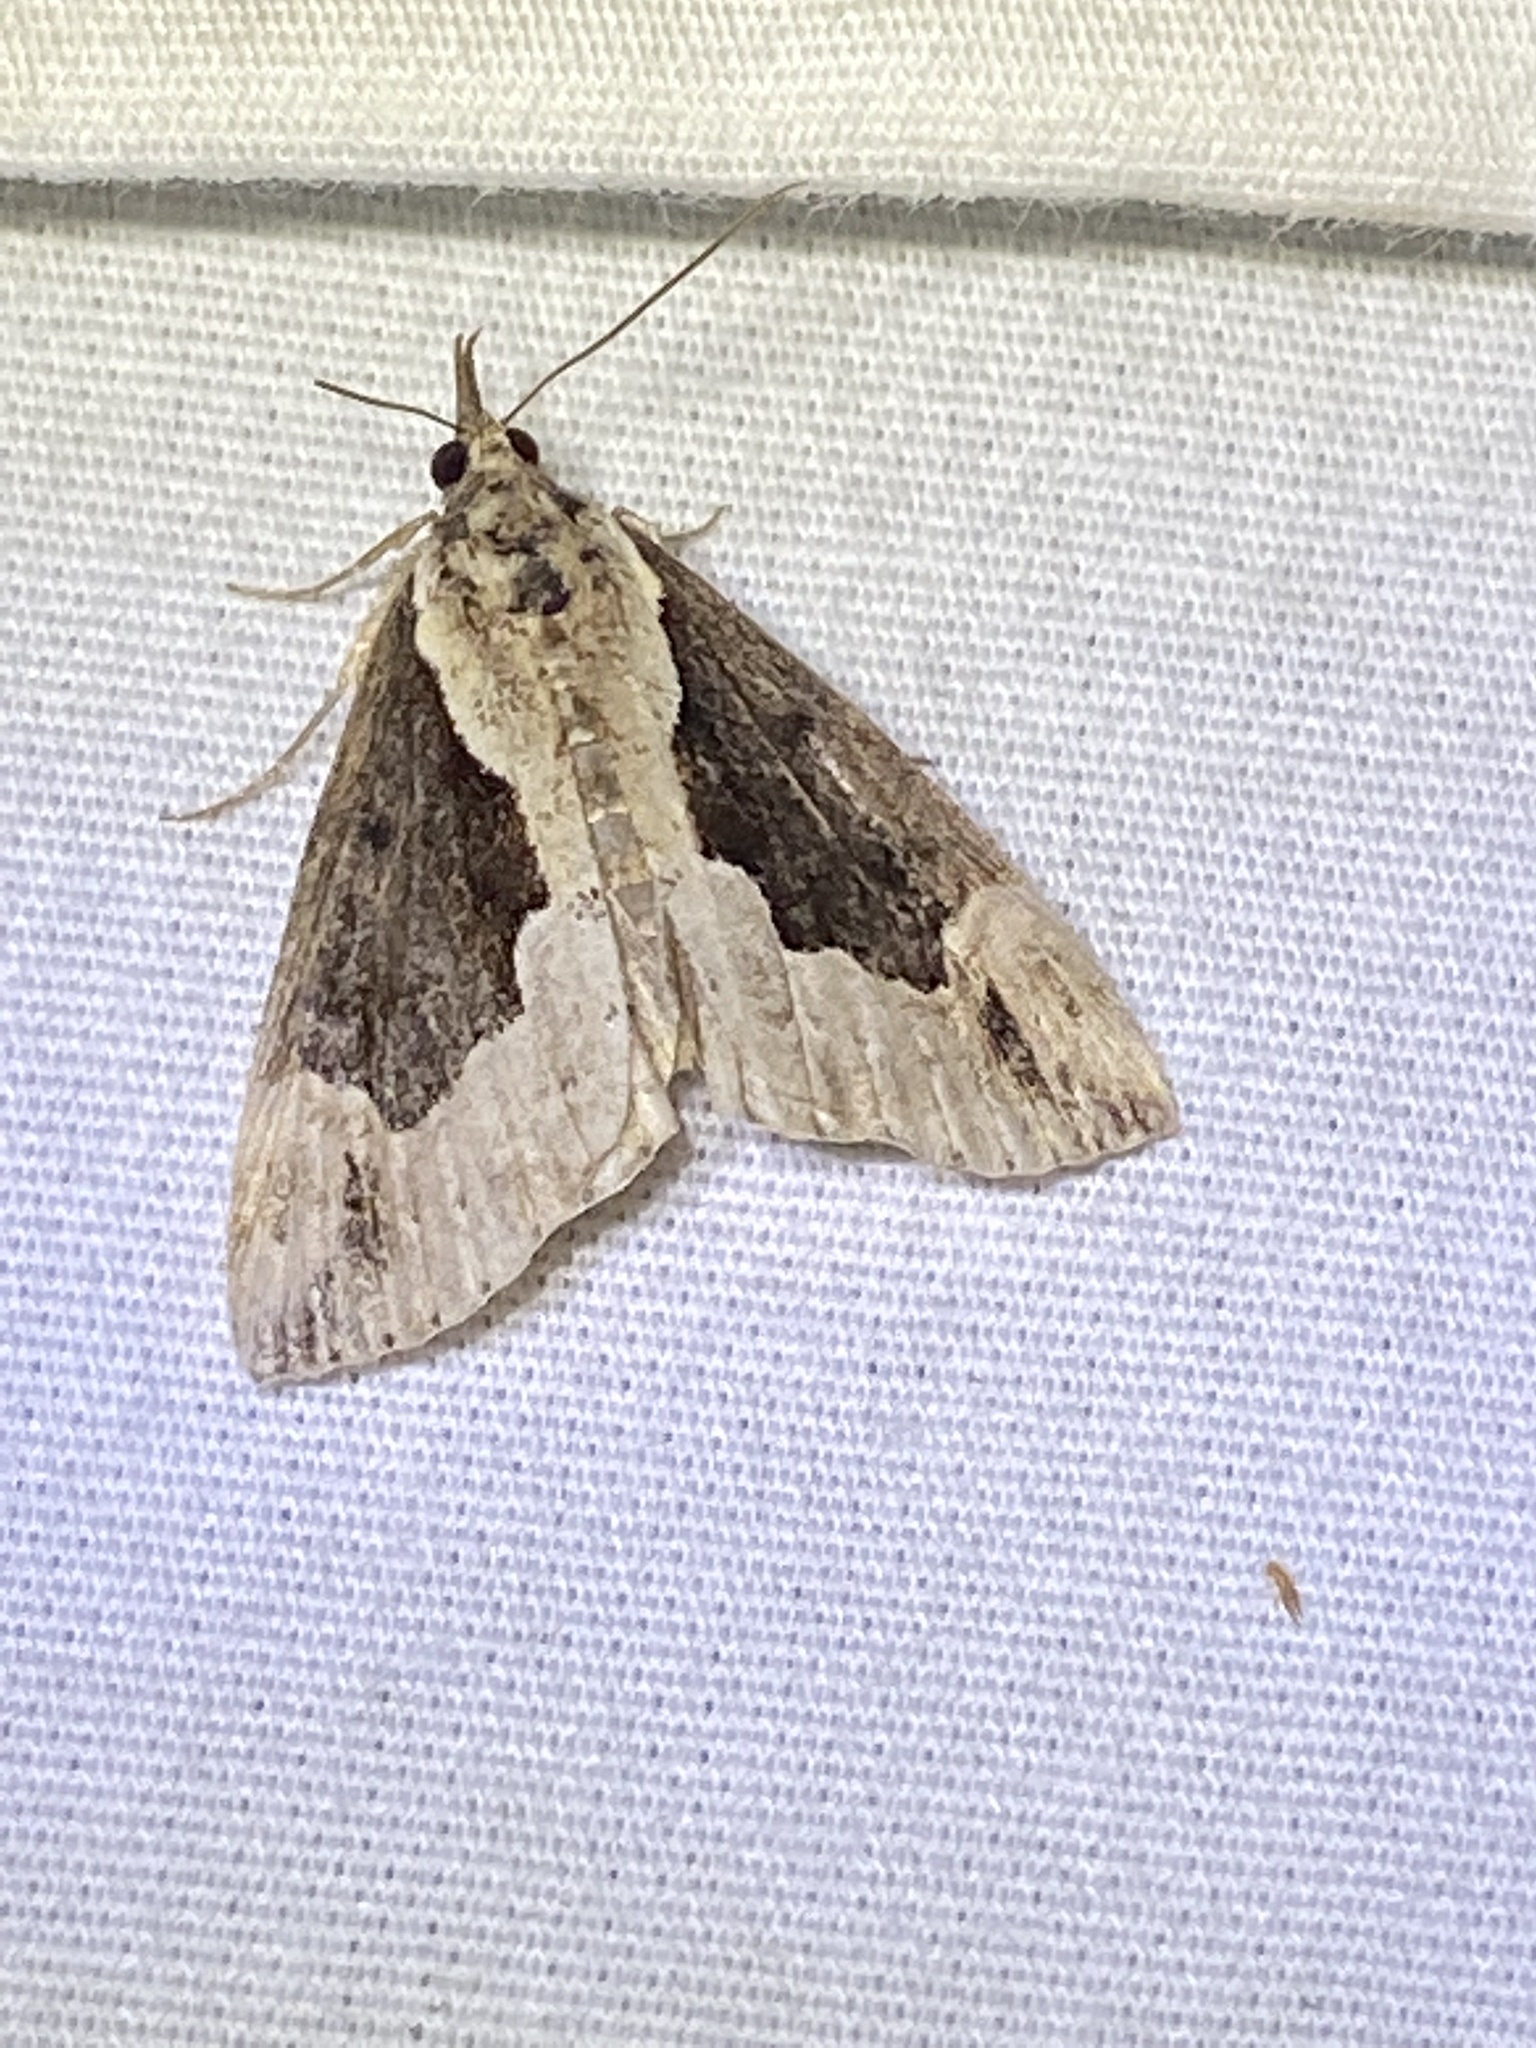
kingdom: Animalia
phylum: Arthropoda
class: Insecta
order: Lepidoptera
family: Erebidae
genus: Hypena
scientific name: Hypena baltimoralis
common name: Baltimore snout
